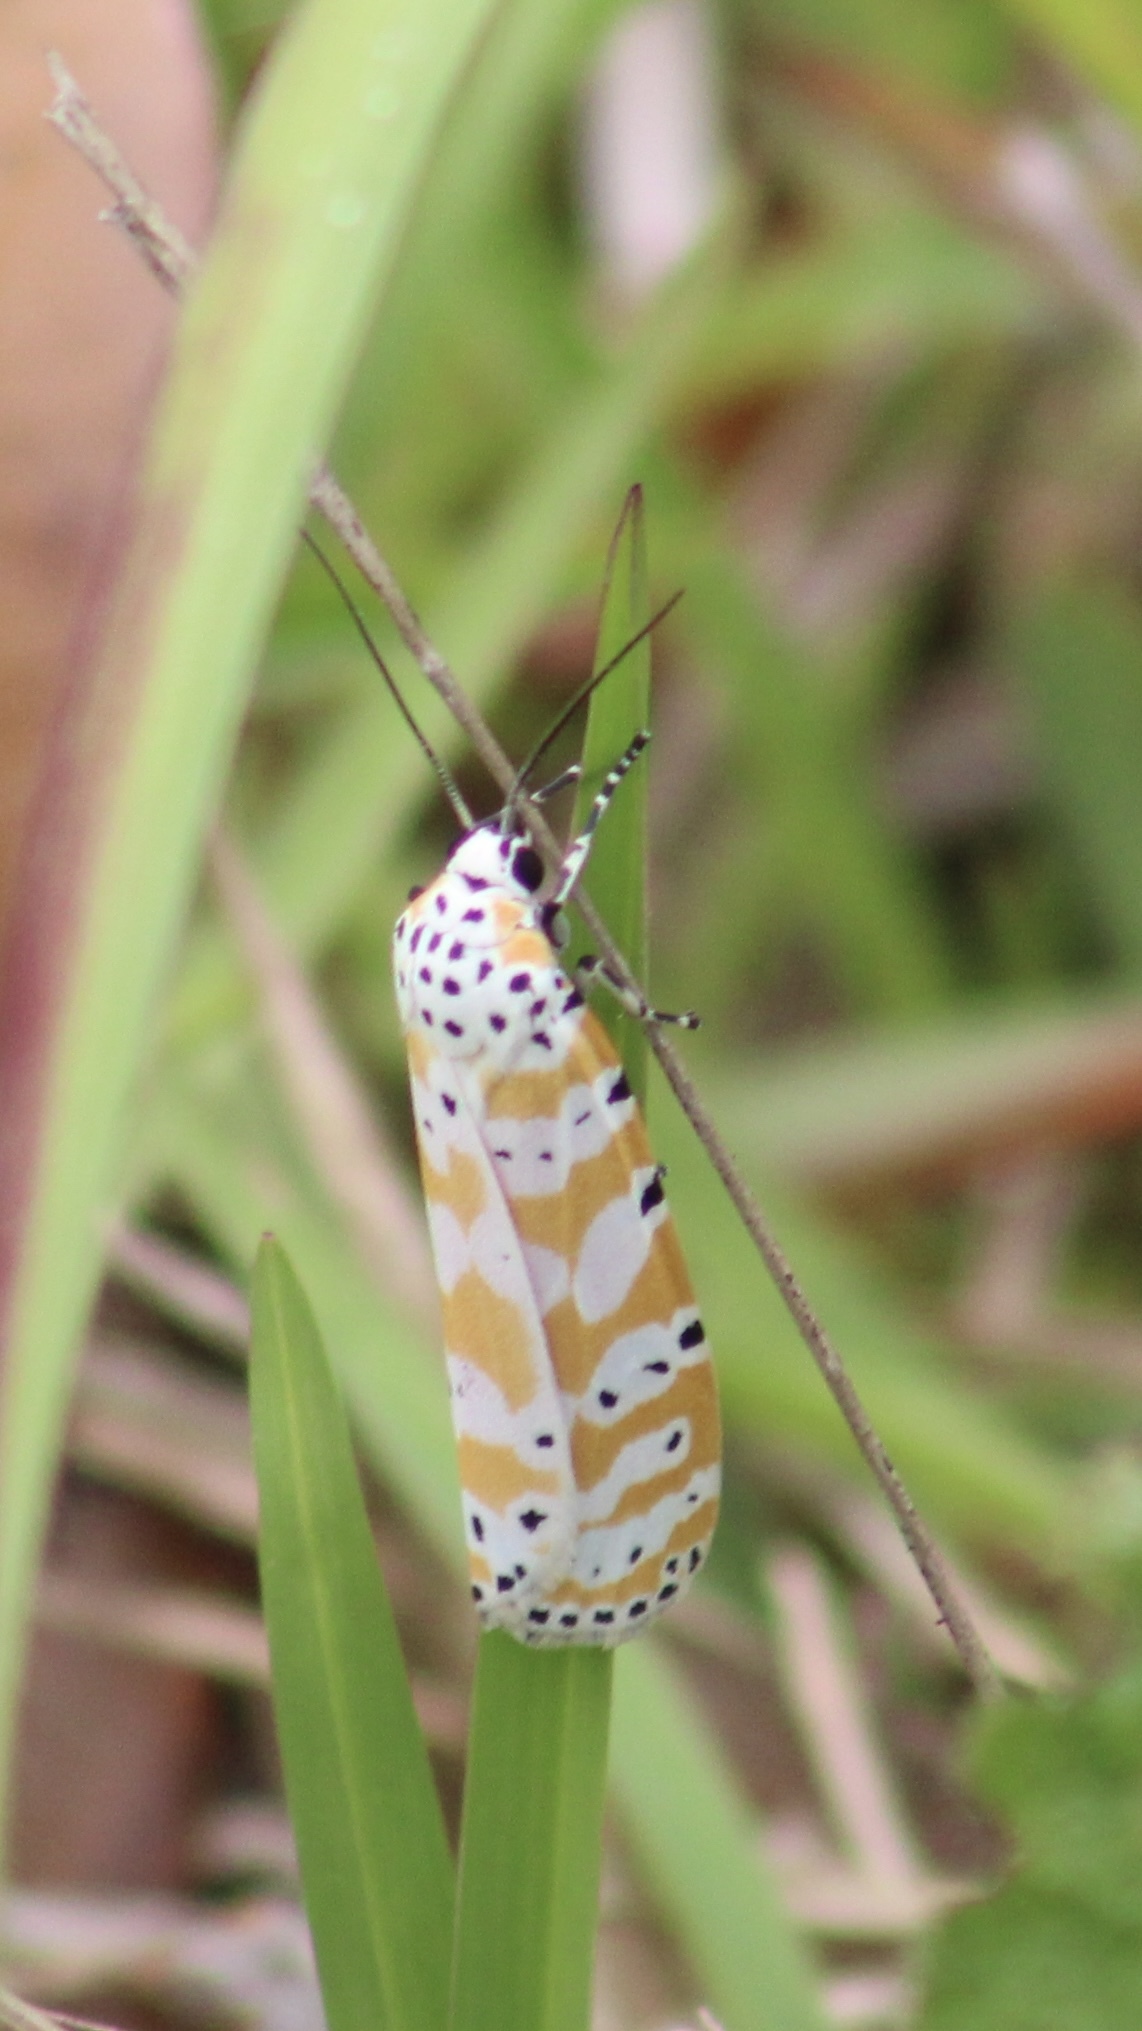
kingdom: Animalia
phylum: Arthropoda
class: Insecta
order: Lepidoptera
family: Erebidae
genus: Utetheisa
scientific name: Utetheisa ornatrix
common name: Beautiful utetheisa
